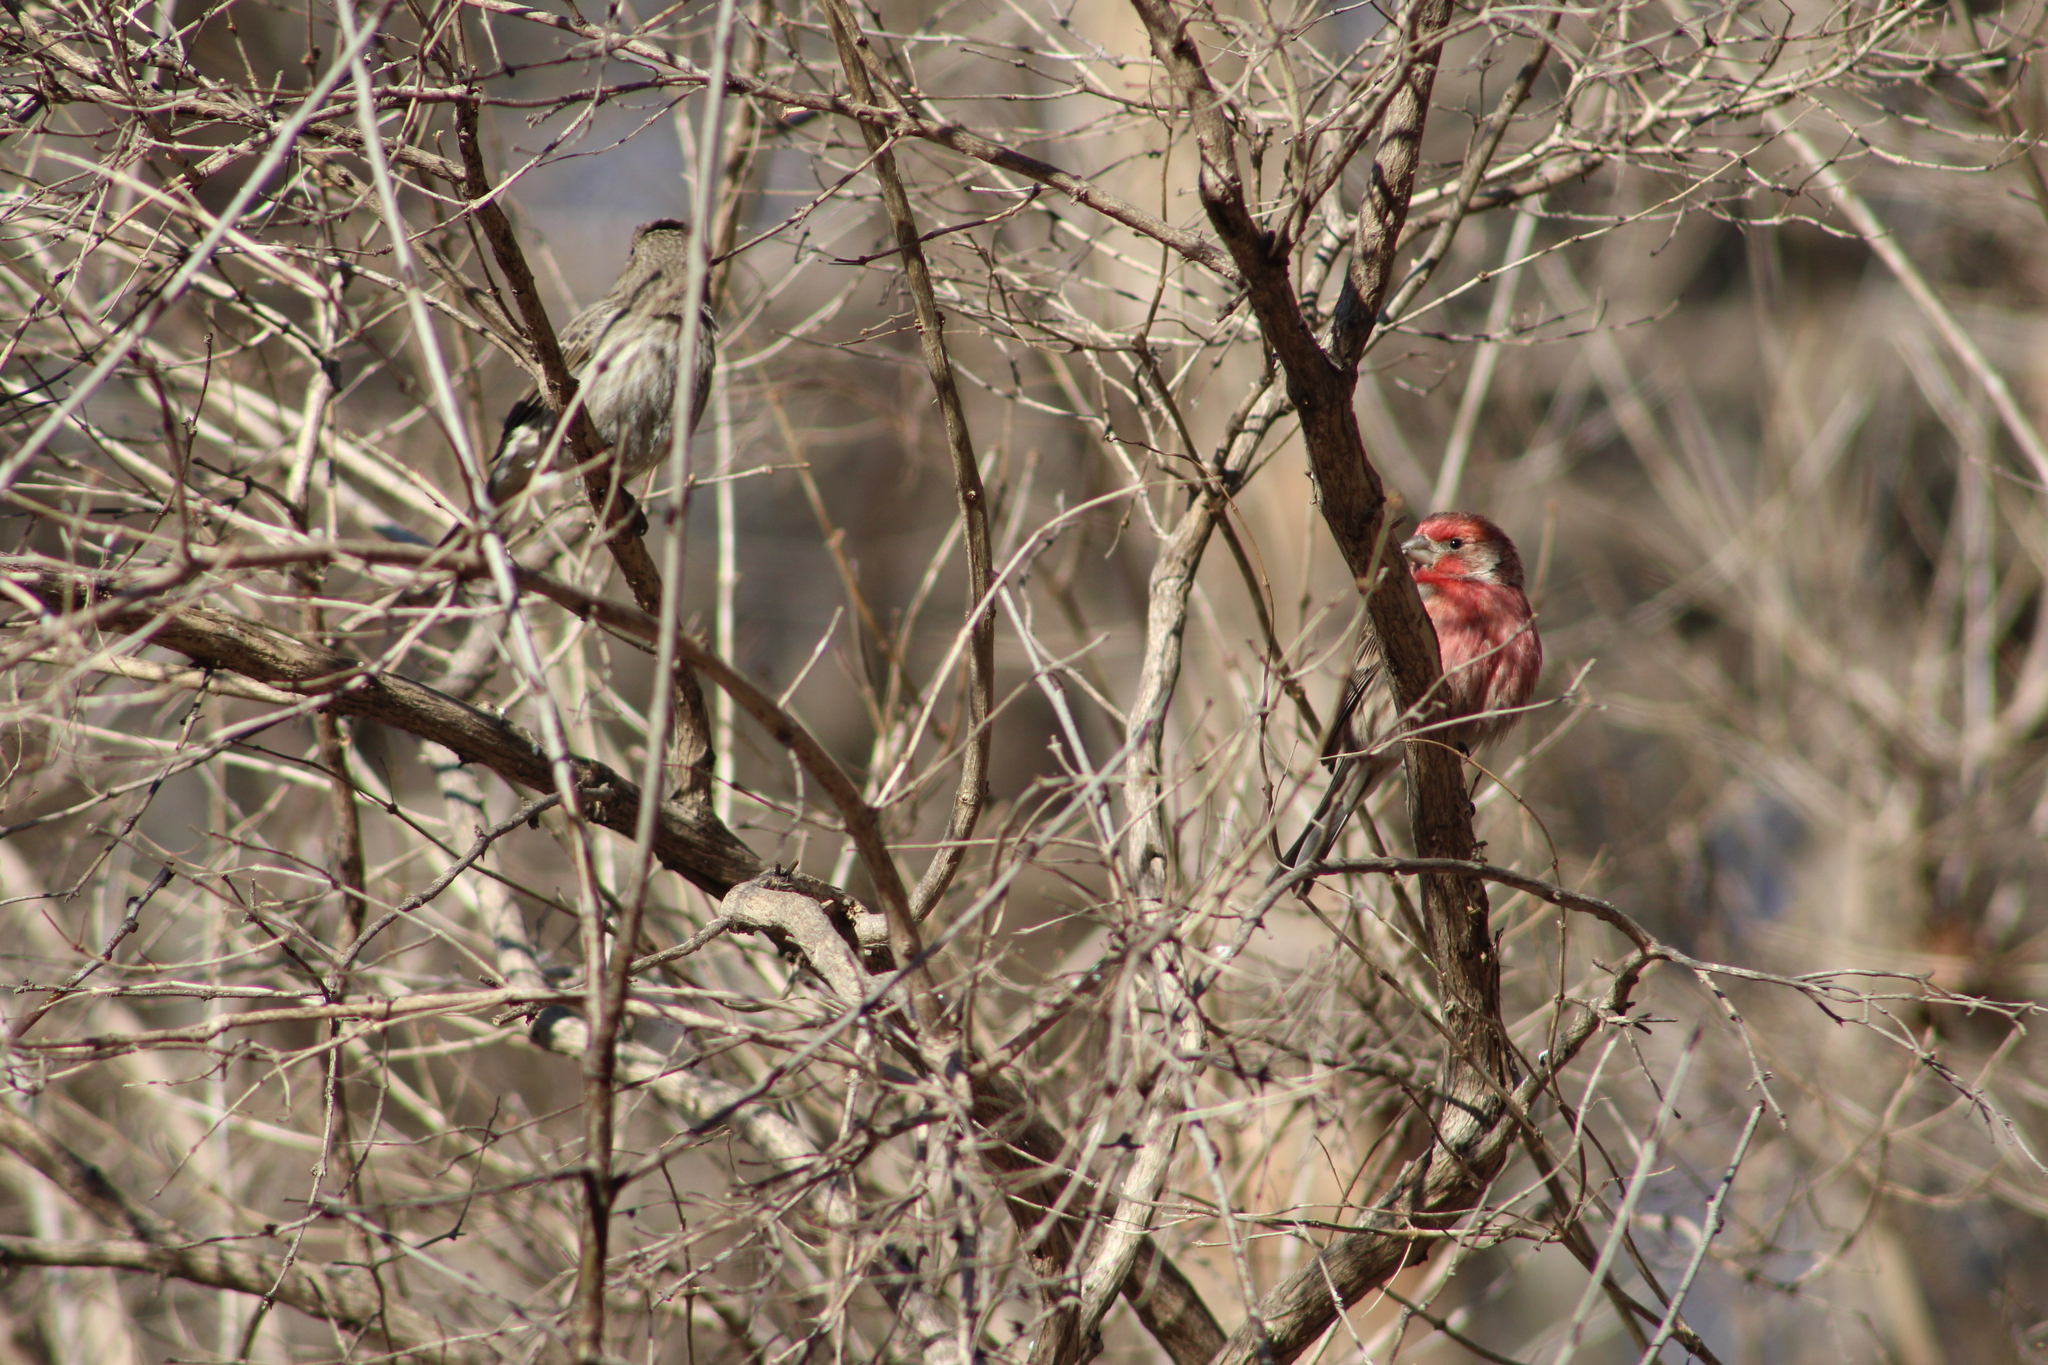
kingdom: Animalia
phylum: Chordata
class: Aves
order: Passeriformes
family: Fringillidae
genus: Haemorhous
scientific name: Haemorhous mexicanus
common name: House finch
